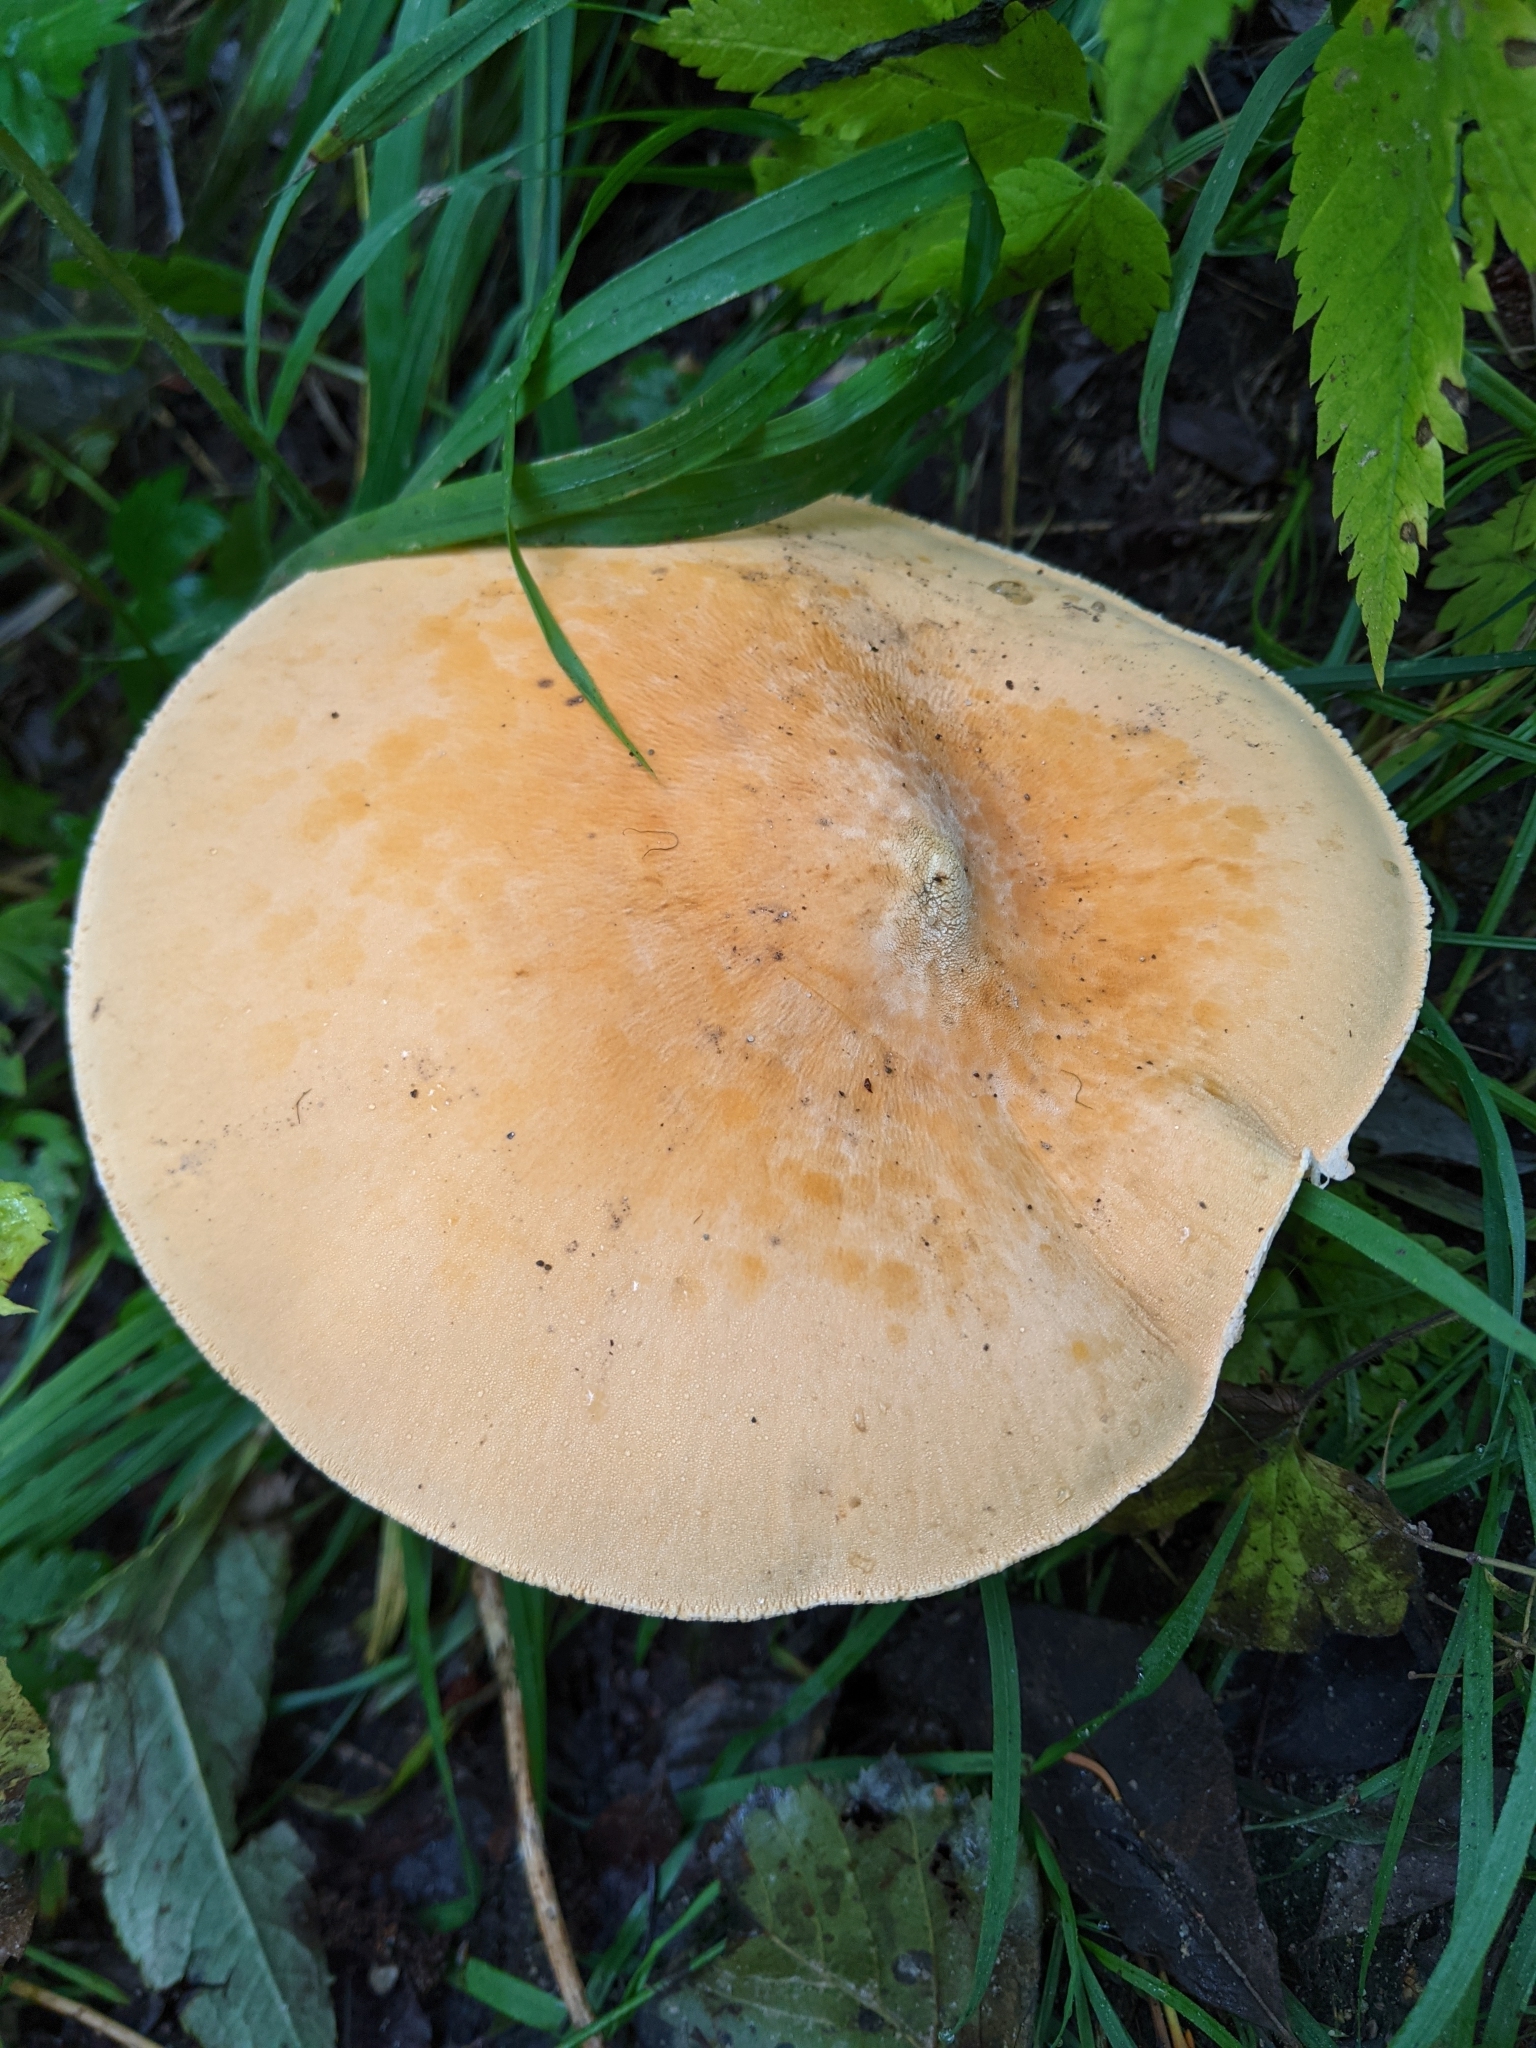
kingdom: Fungi
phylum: Basidiomycota
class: Agaricomycetes
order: Agaricales
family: Tricholomataceae
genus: Phaeolepiota
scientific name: Phaeolepiota aurea
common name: Golden bootleg
